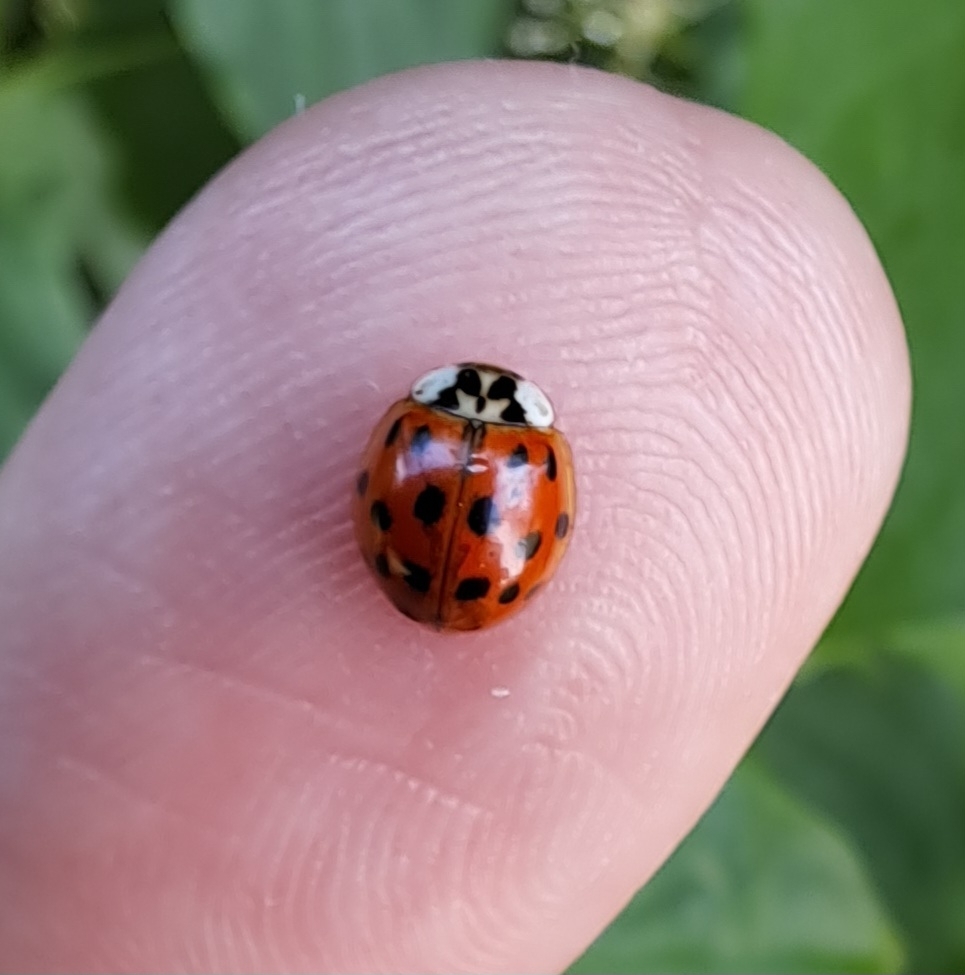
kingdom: Animalia
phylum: Arthropoda
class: Insecta
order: Coleoptera
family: Coccinellidae
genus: Harmonia
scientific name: Harmonia axyridis
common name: Harlequin ladybird
